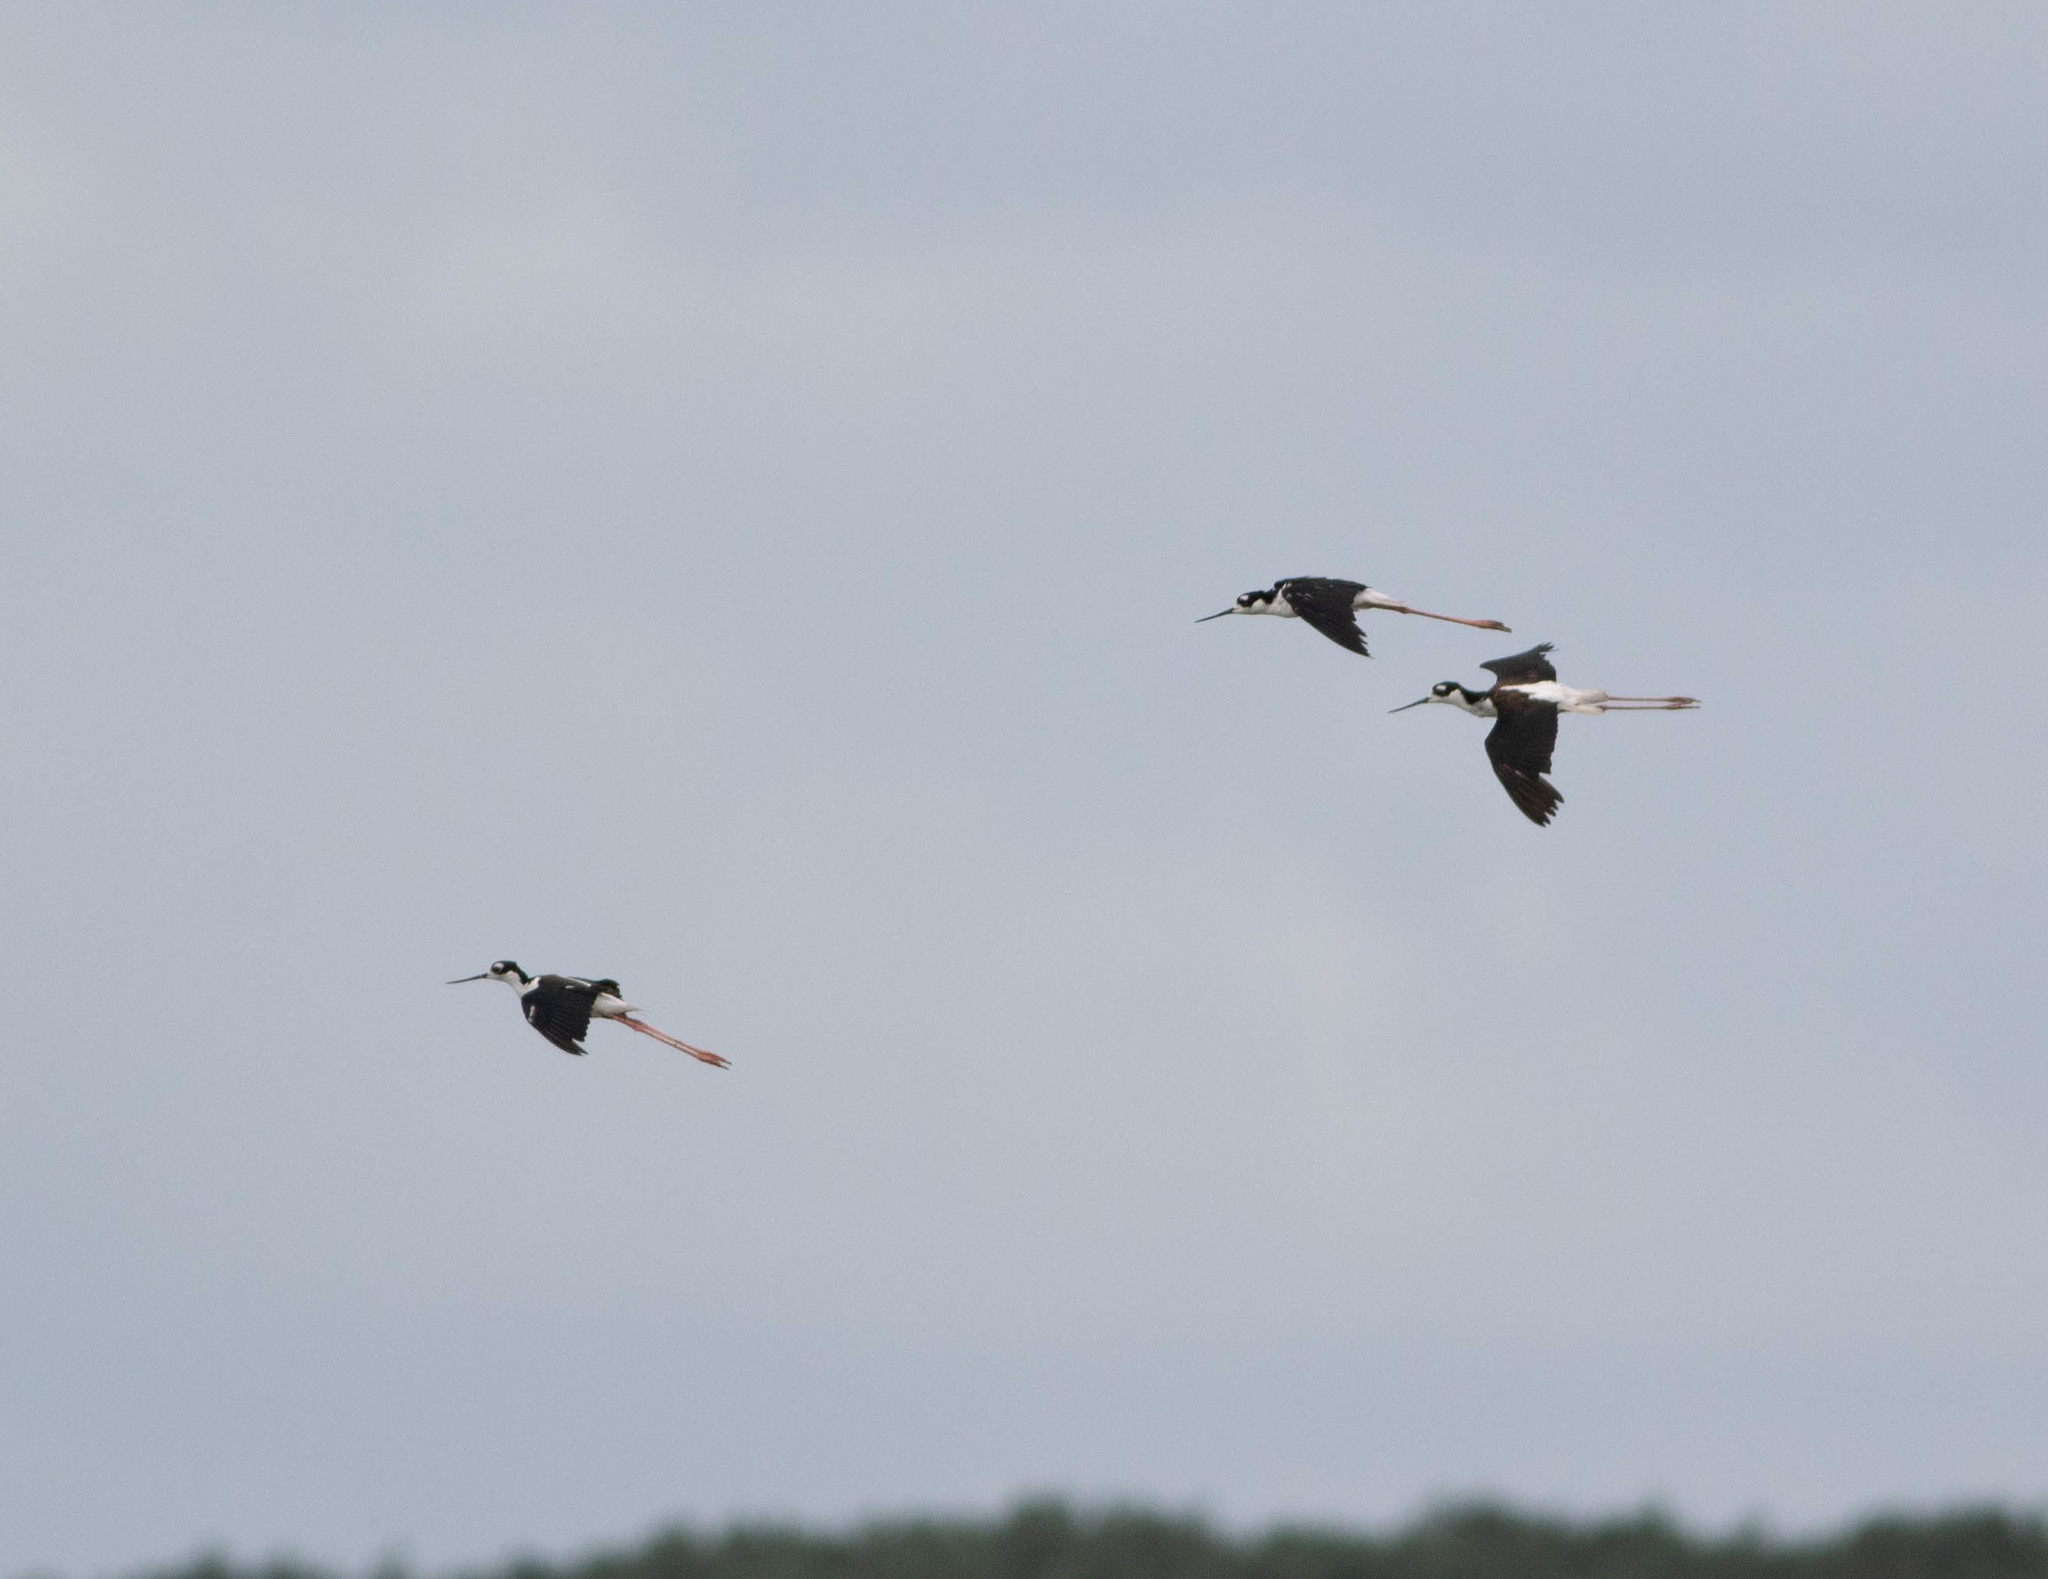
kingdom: Animalia
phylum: Chordata
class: Aves
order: Charadriiformes
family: Recurvirostridae
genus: Himantopus
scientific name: Himantopus mexicanus
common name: Black-necked stilt
